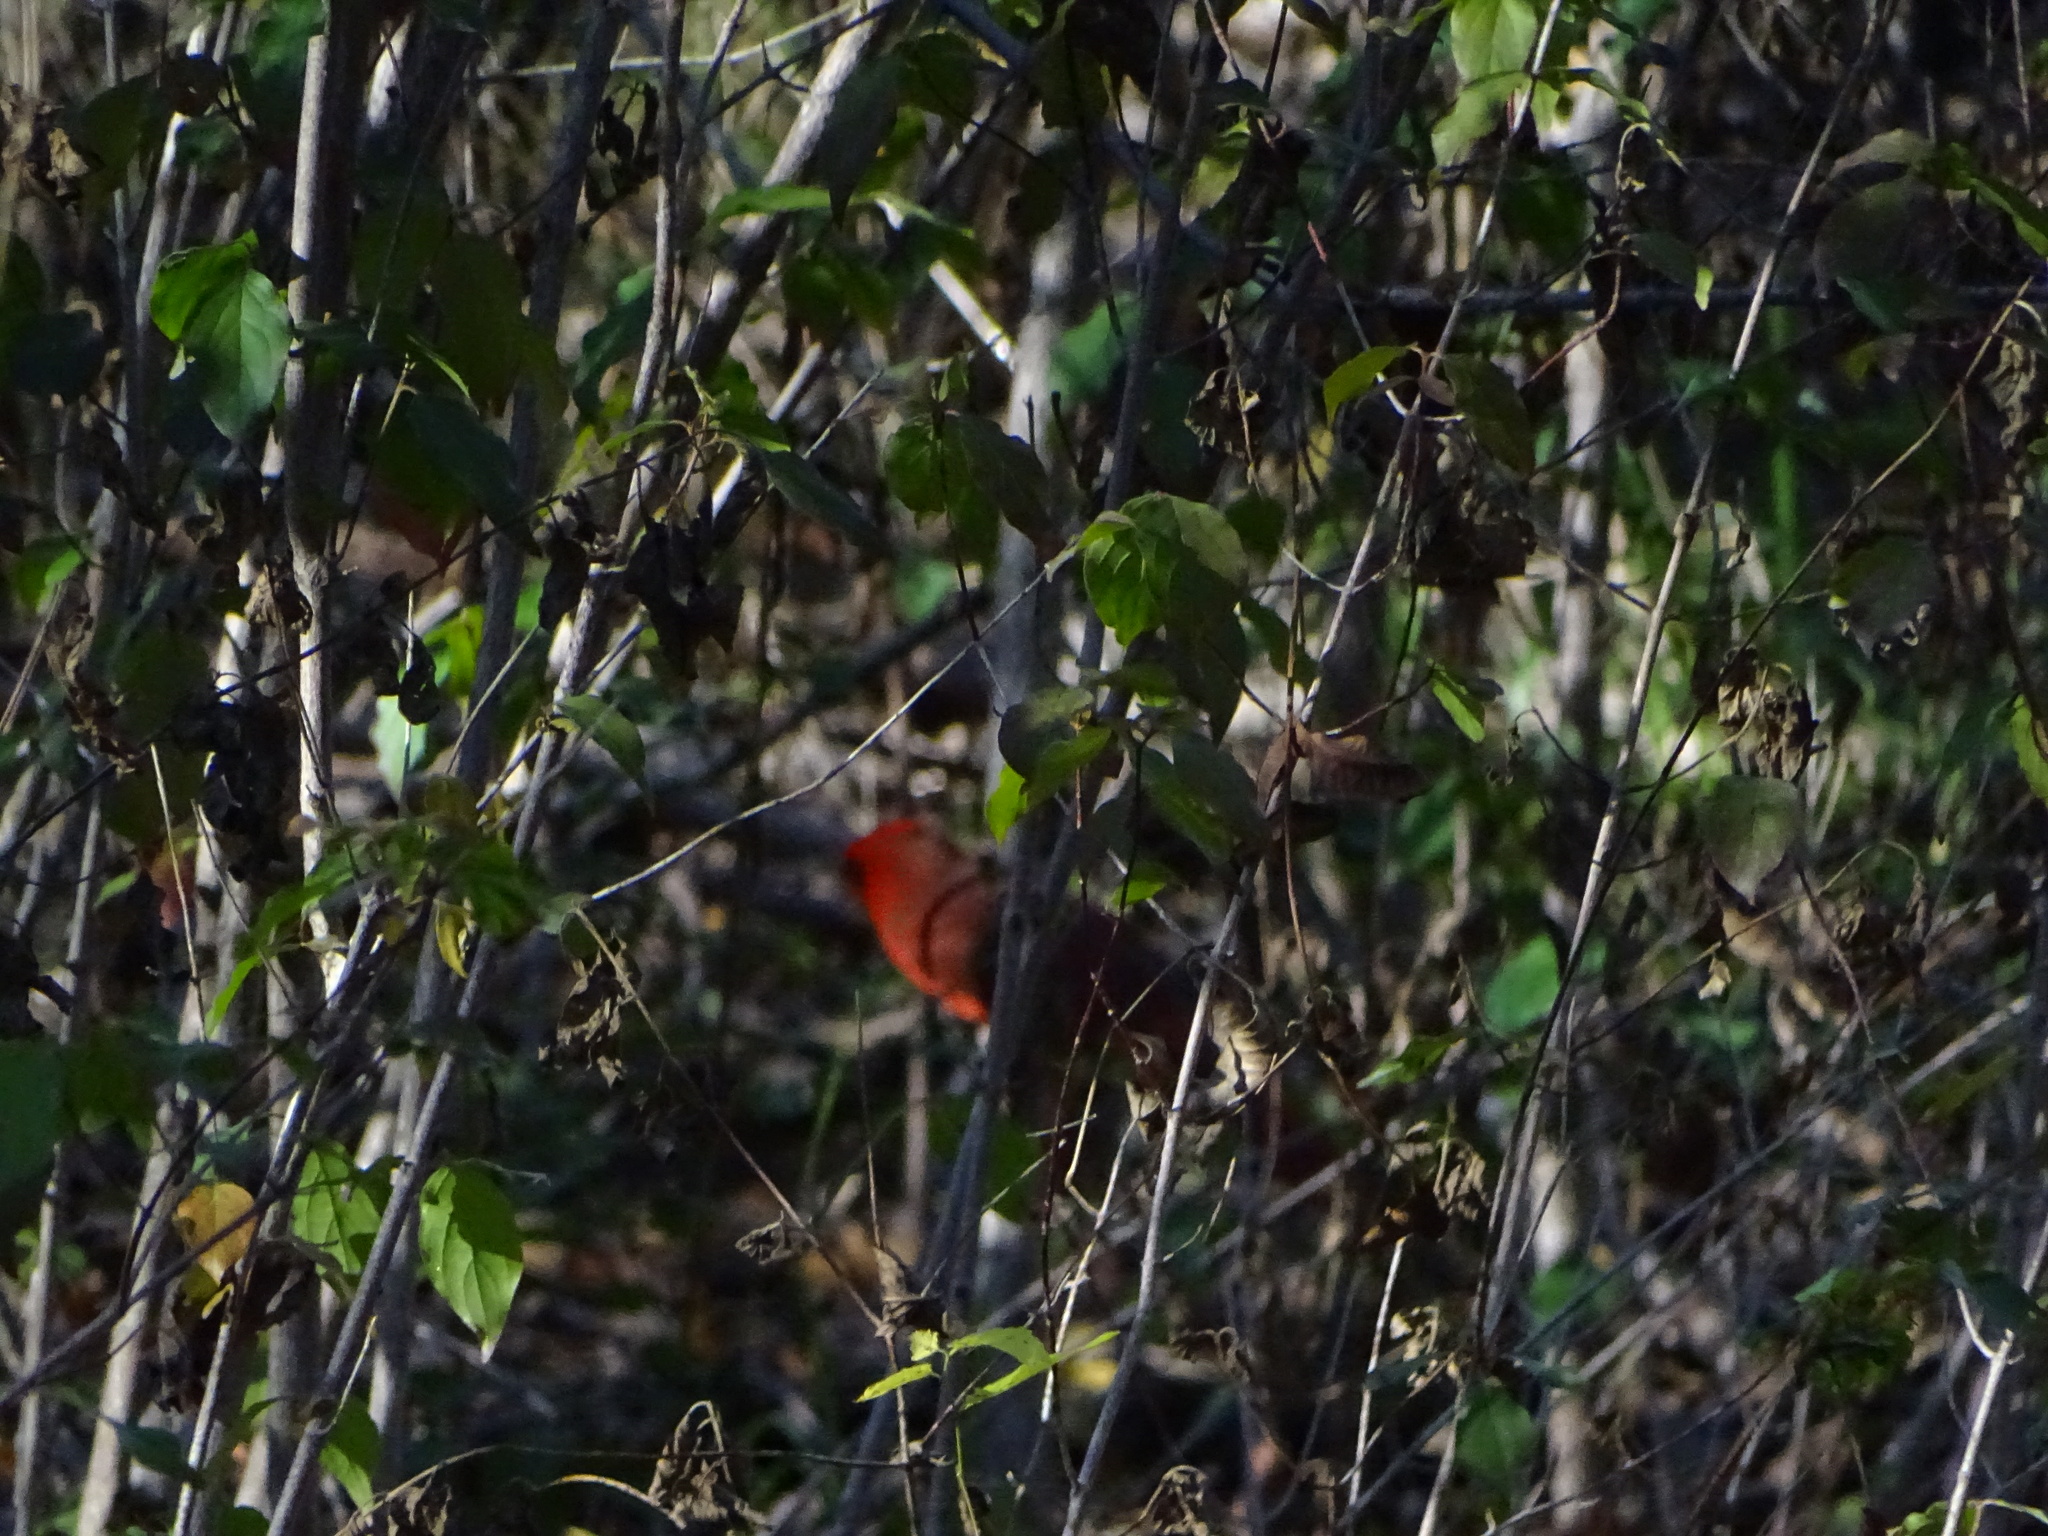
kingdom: Animalia
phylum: Chordata
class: Aves
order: Passeriformes
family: Cardinalidae
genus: Cardinalis
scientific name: Cardinalis cardinalis
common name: Northern cardinal
